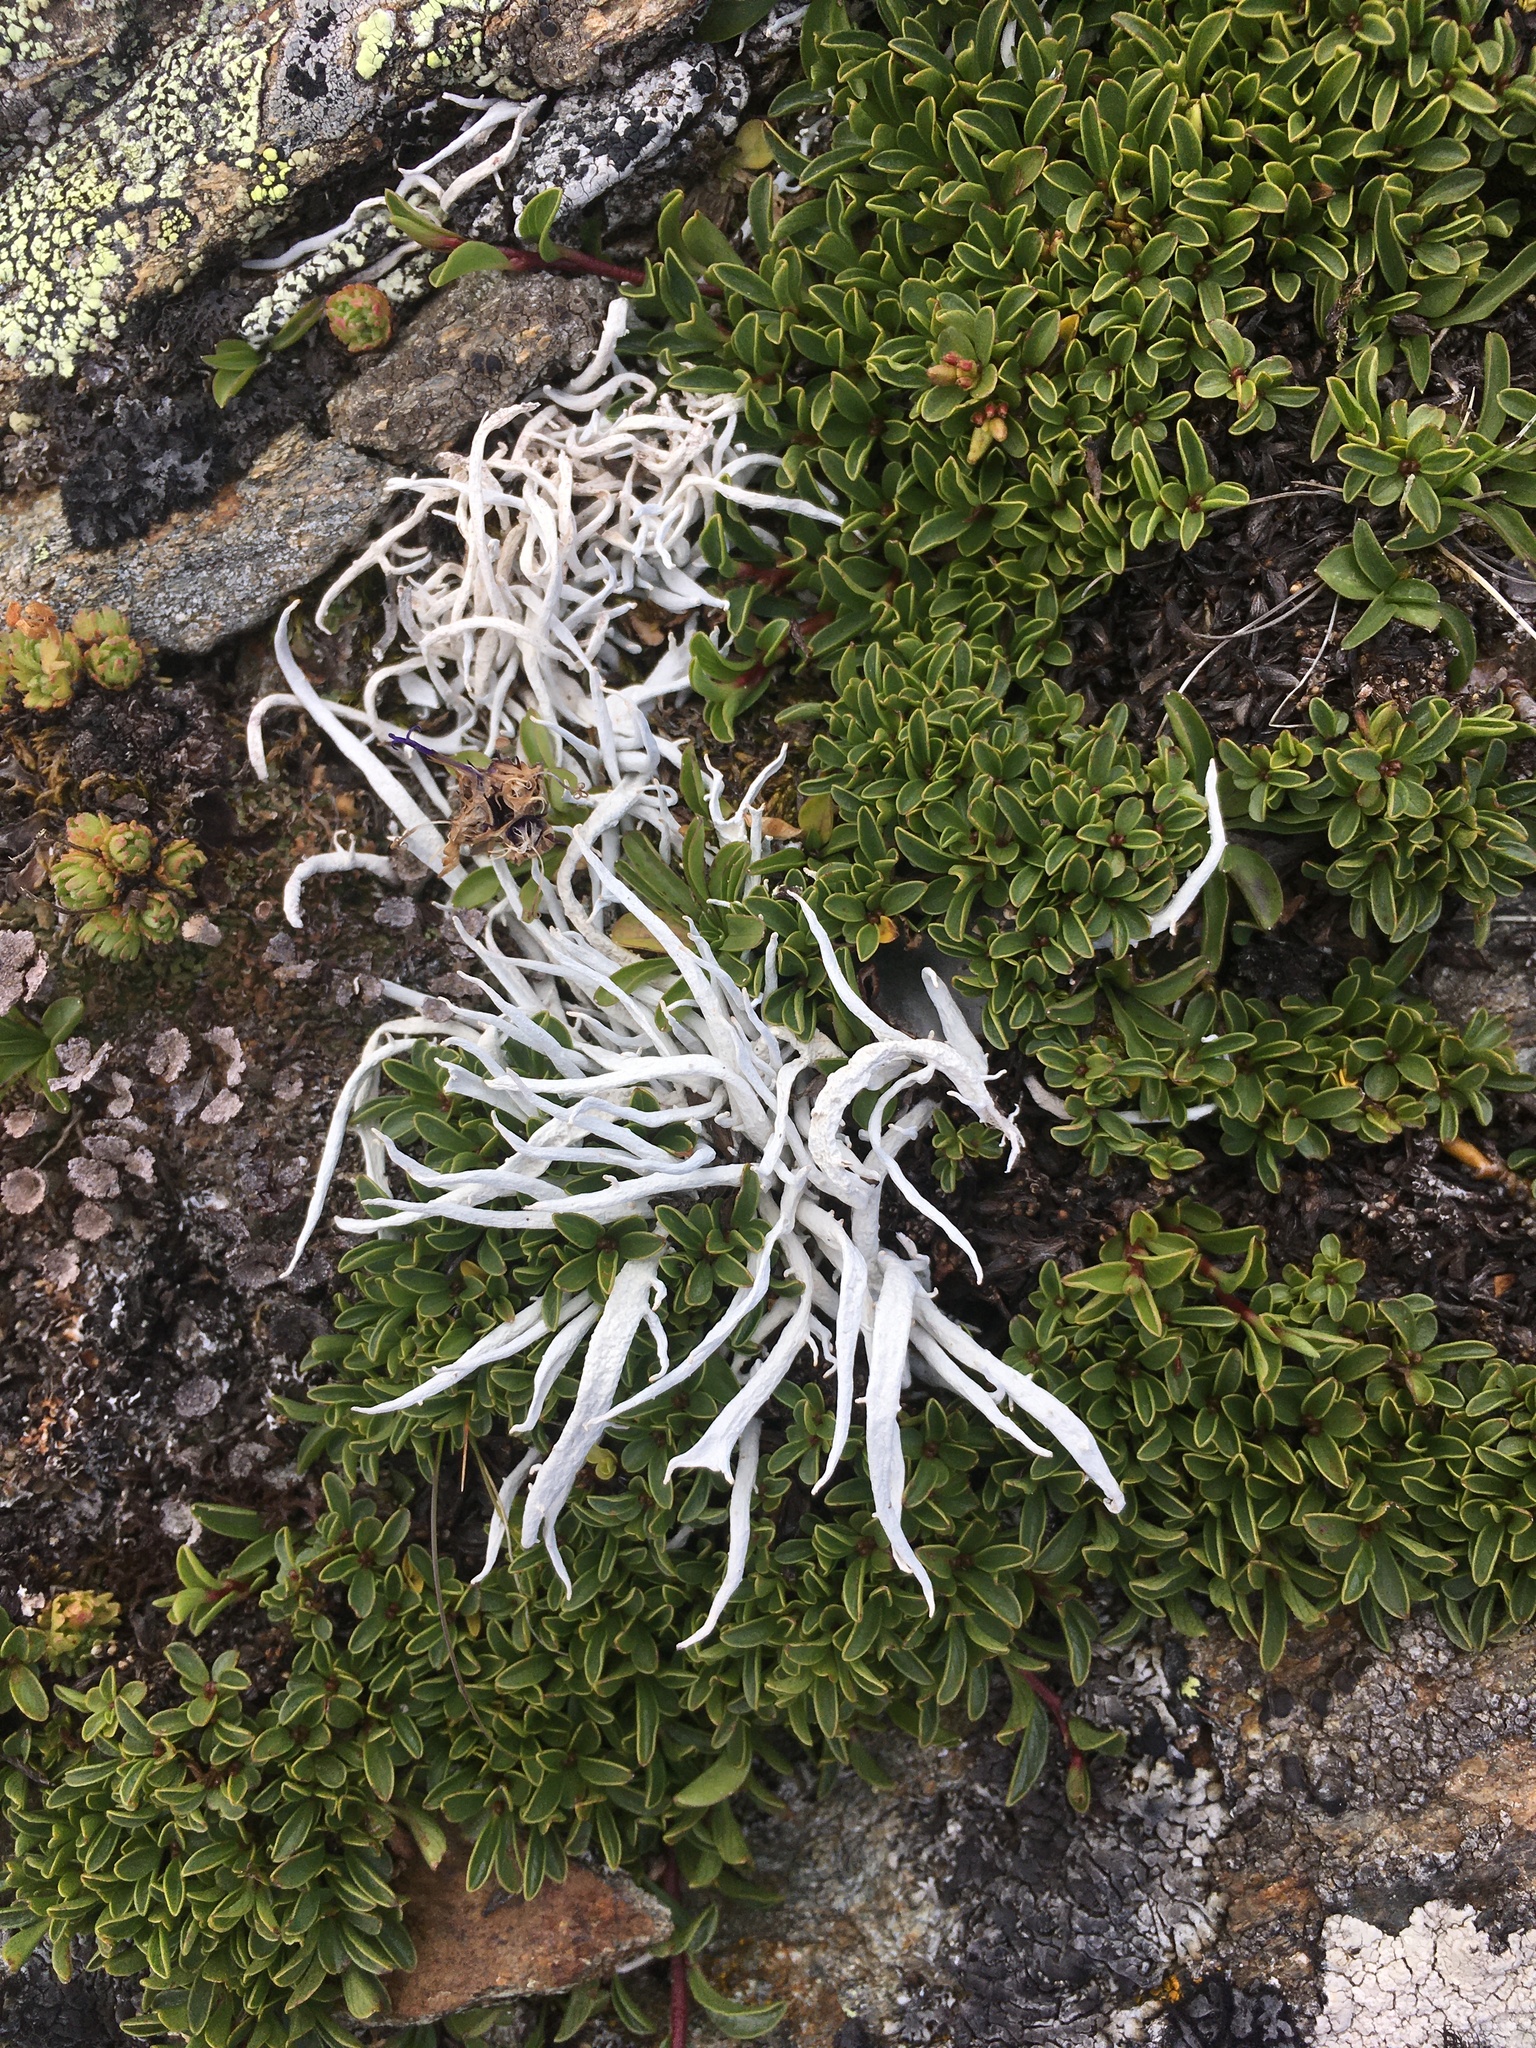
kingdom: Fungi
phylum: Ascomycota
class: Lecanoromycetes
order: Pertusariales
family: Icmadophilaceae
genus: Thamnolia
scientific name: Thamnolia vermicularis
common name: Whiteworm lichen
